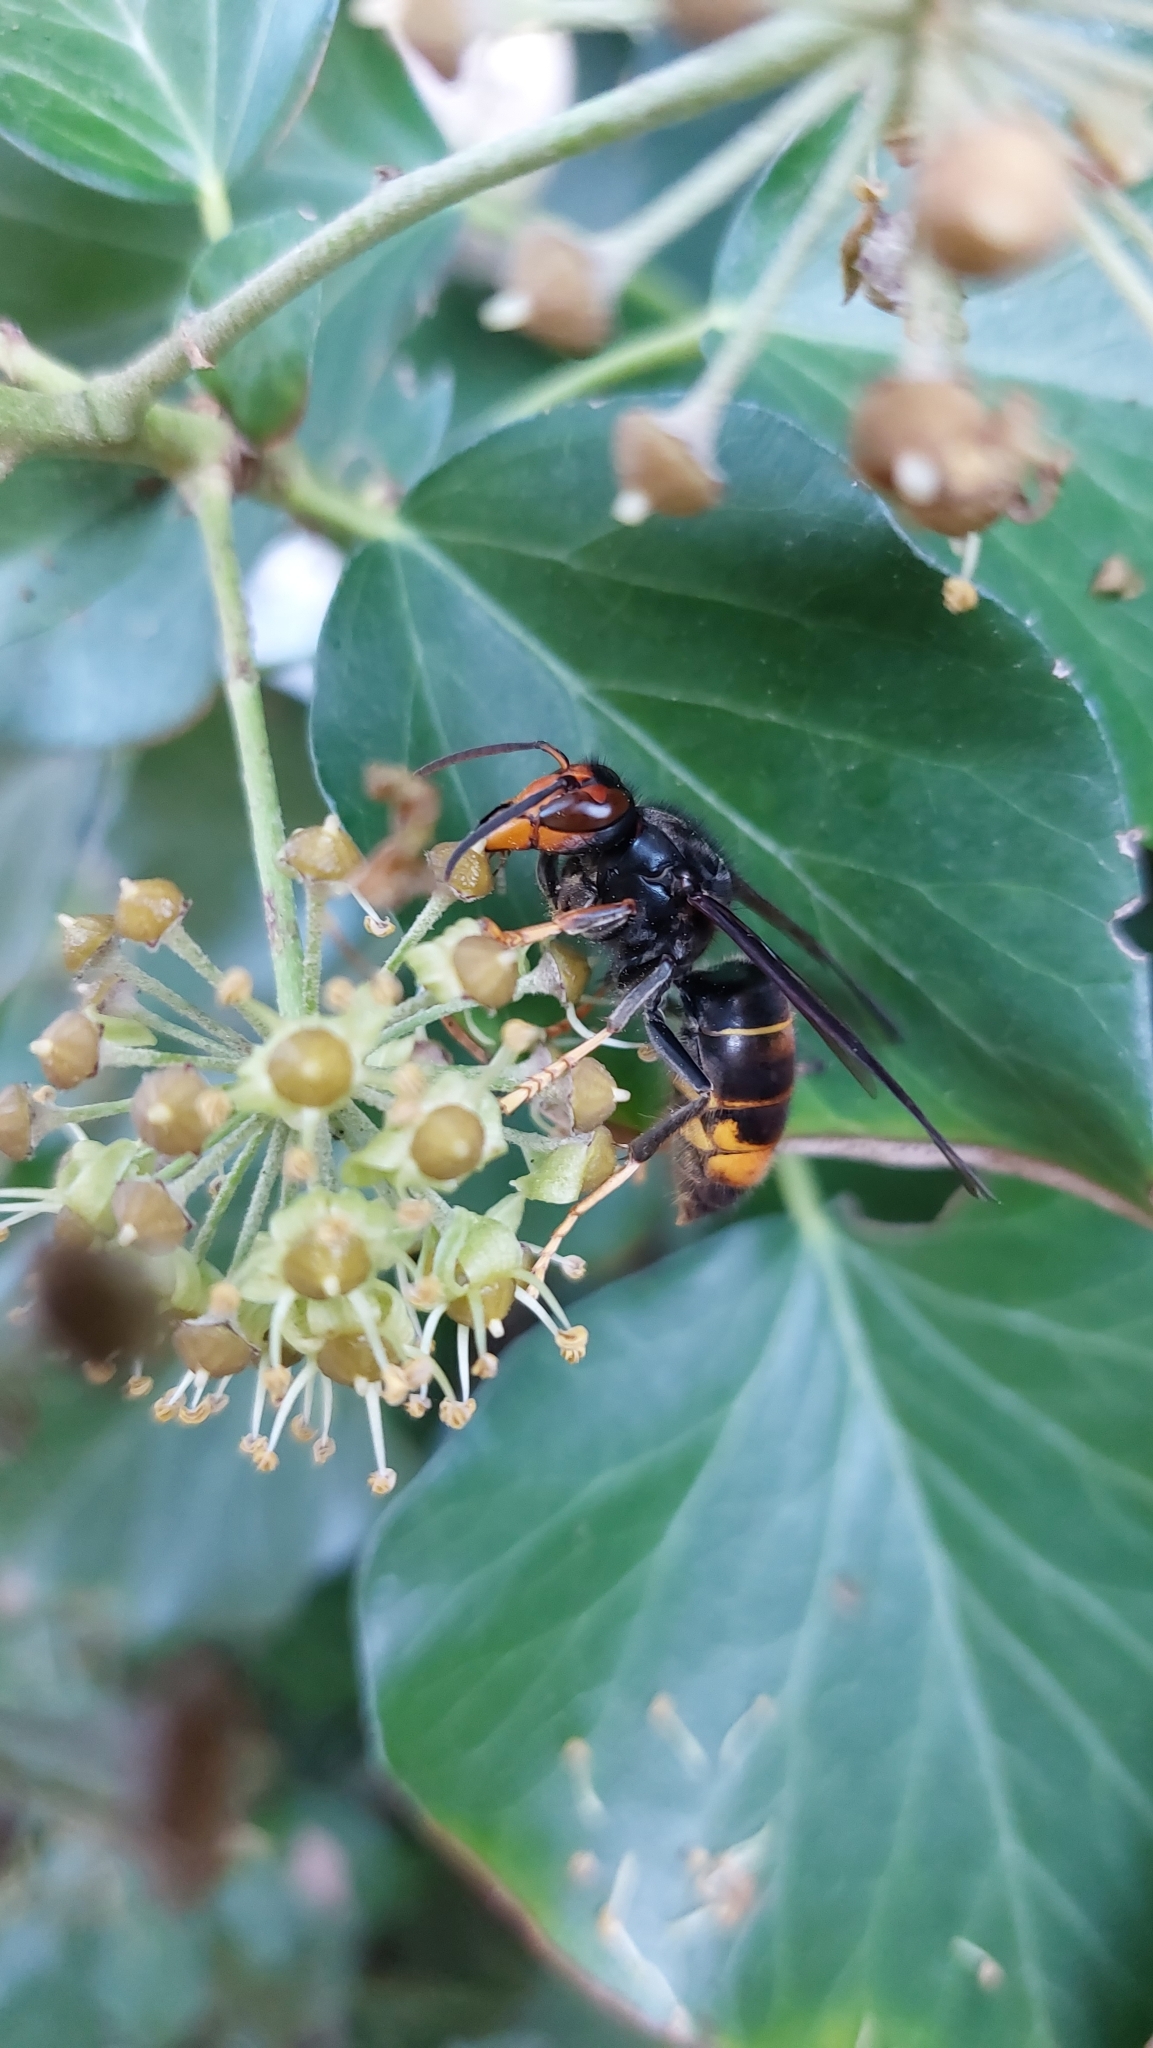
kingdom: Animalia
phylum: Arthropoda
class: Insecta
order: Hymenoptera
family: Vespidae
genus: Vespa
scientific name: Vespa velutina
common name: Asian hornet
